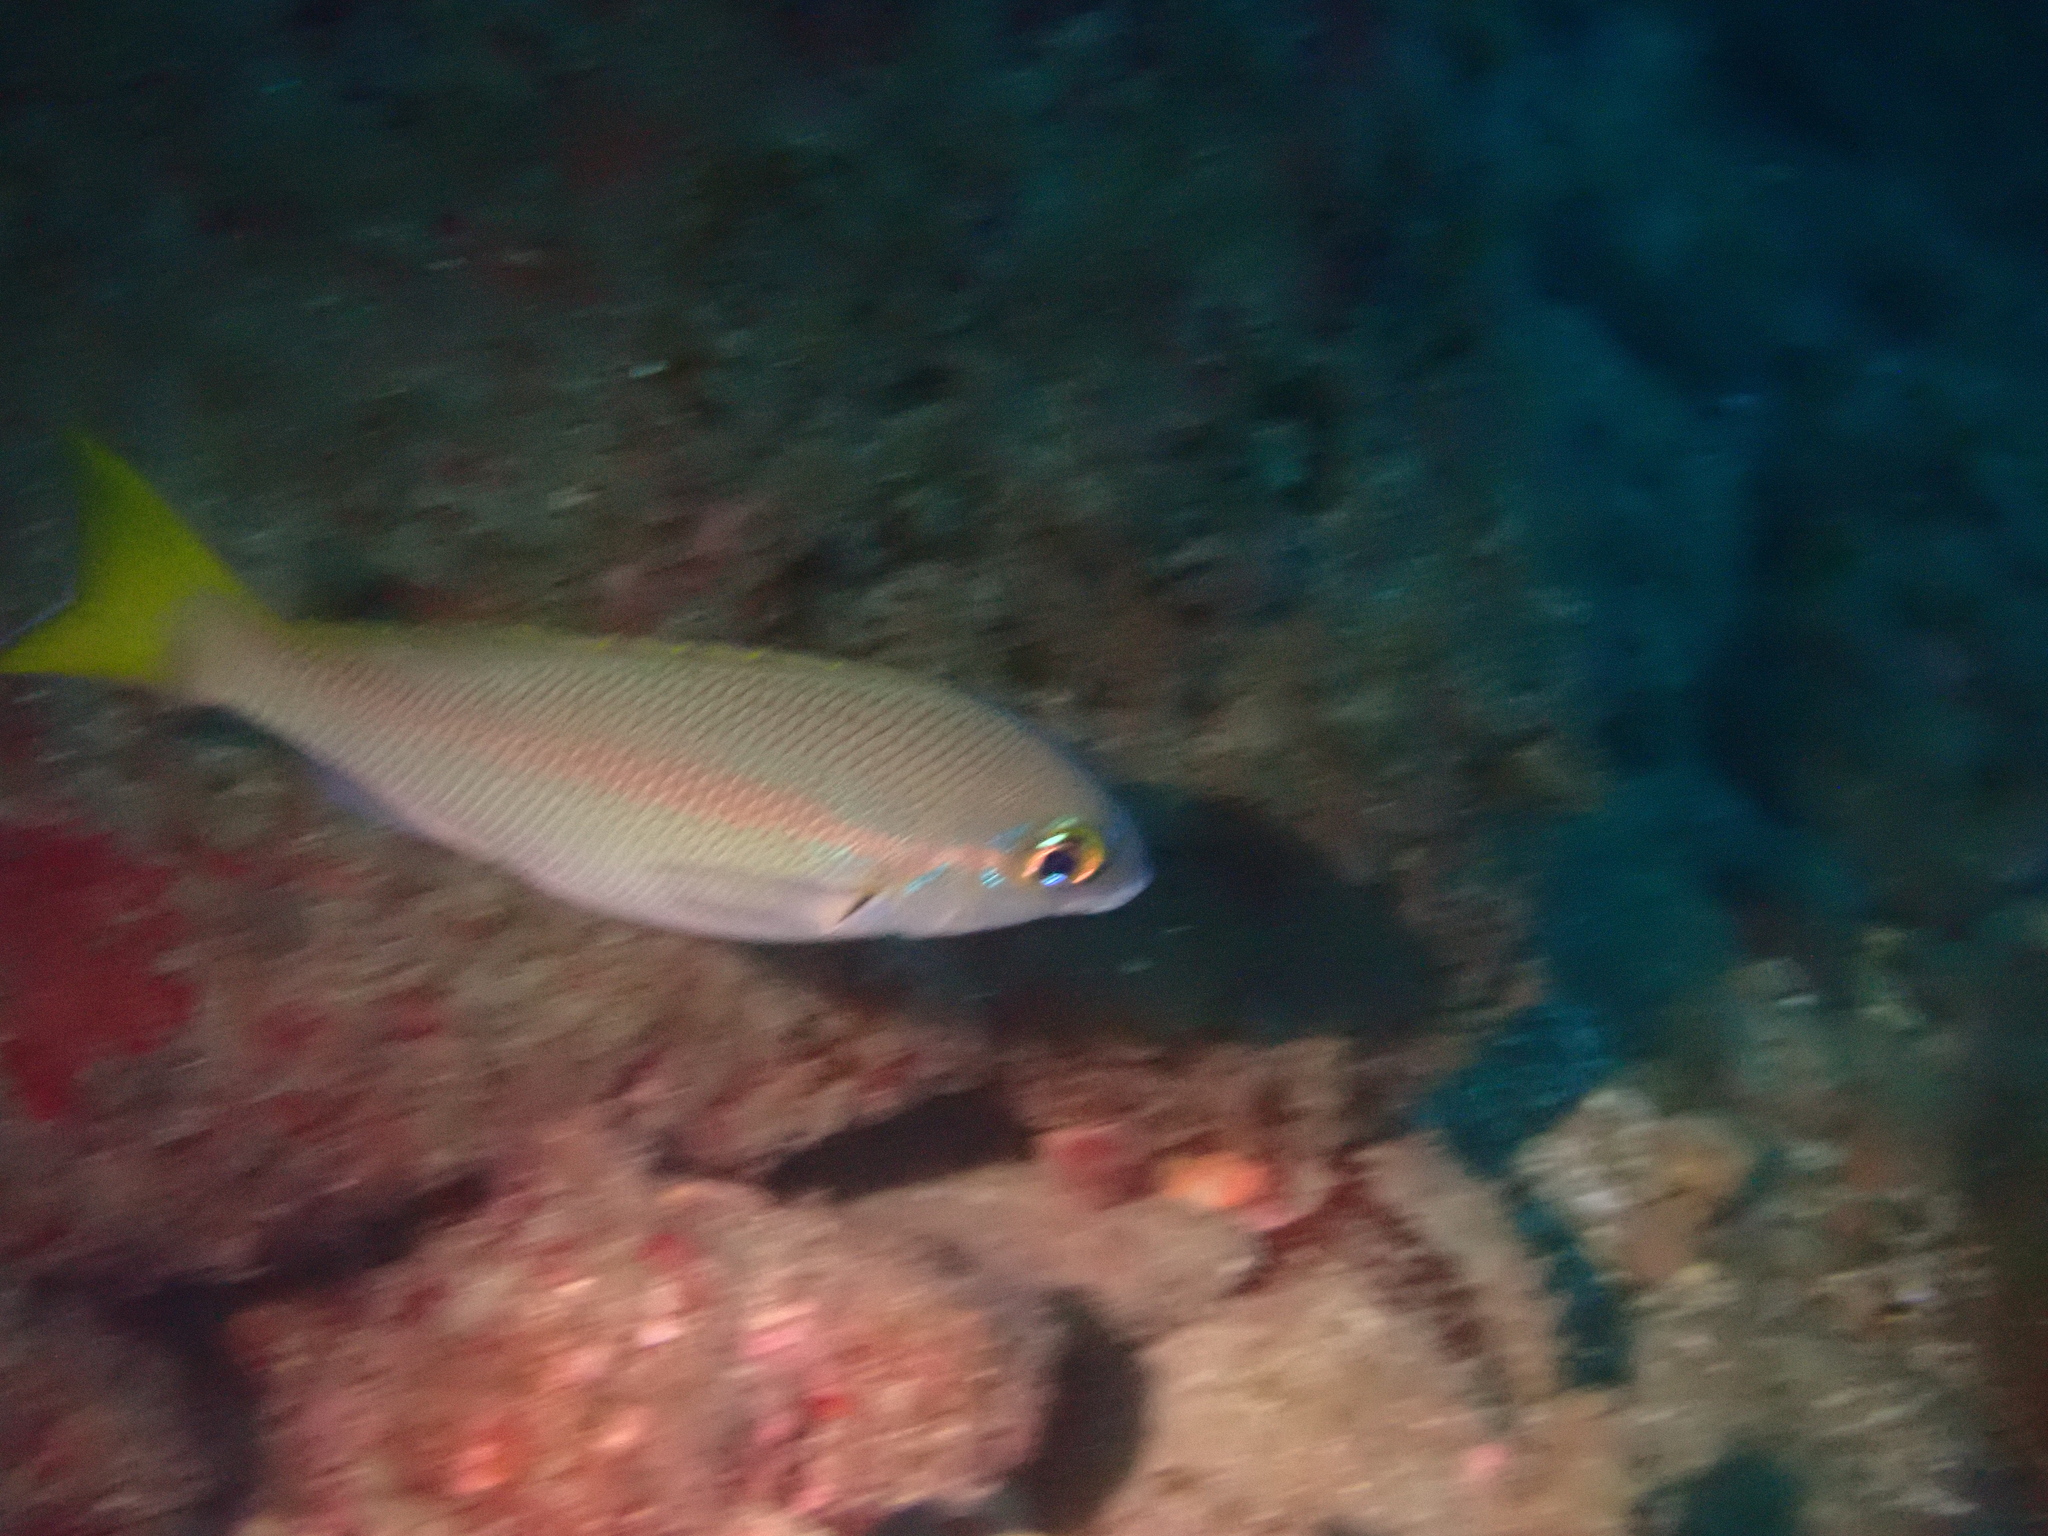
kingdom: Animalia
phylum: Chordata
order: Perciformes
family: Nemipteridae
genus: Scolopsis
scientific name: Scolopsis affinis
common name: Peters' monocle bream
